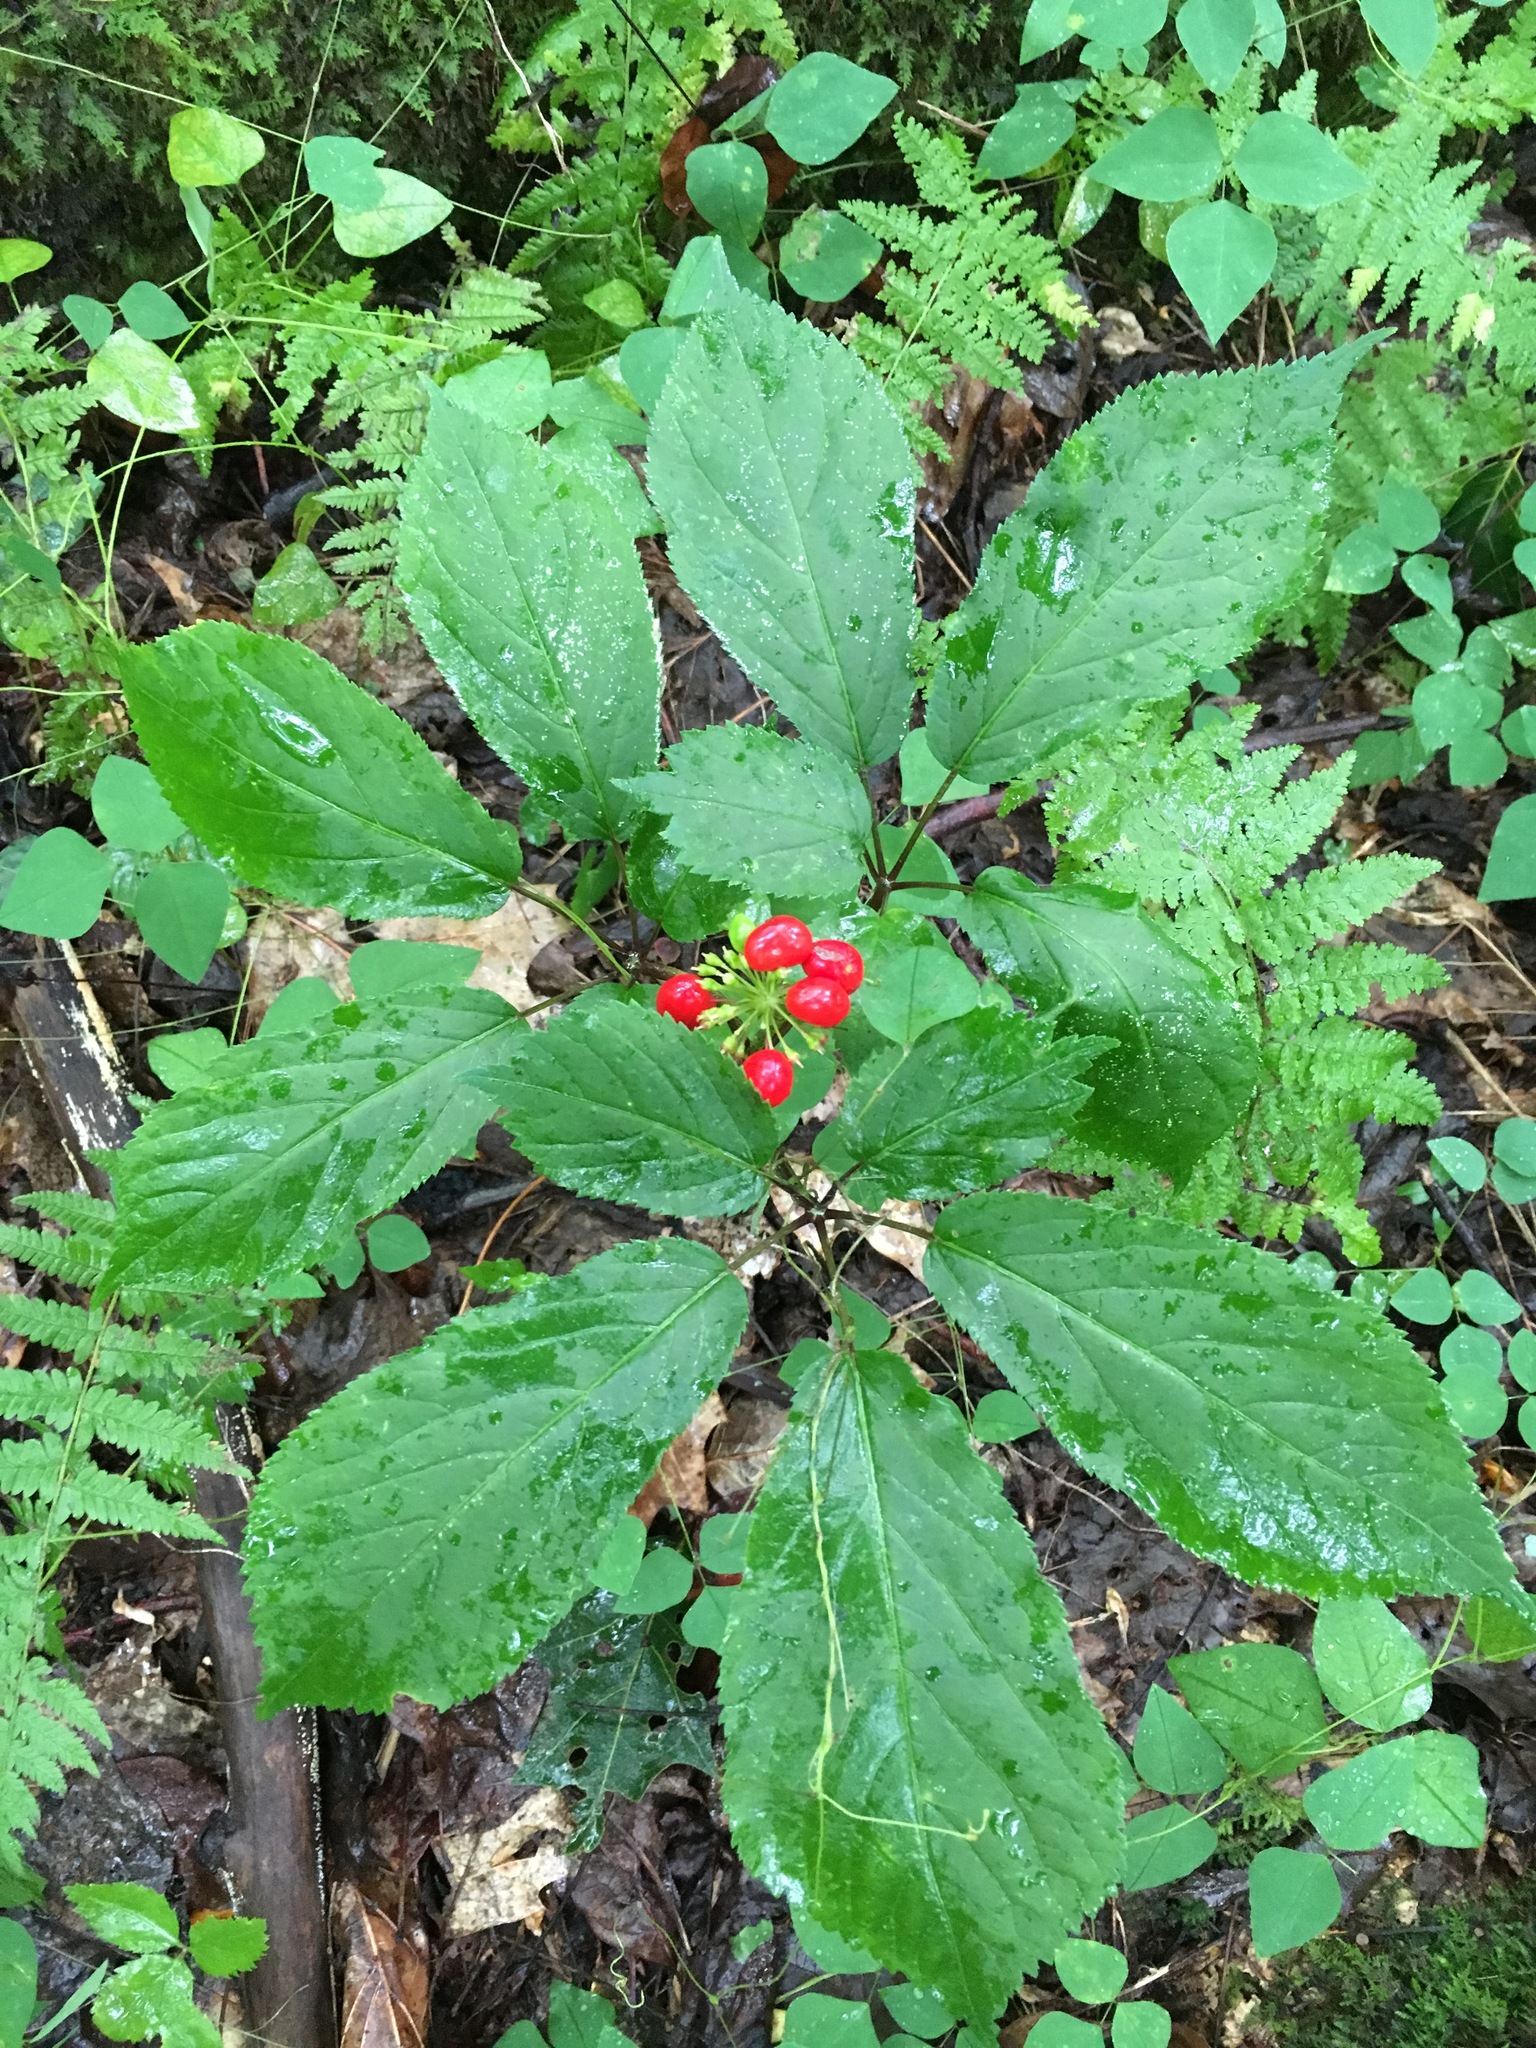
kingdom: Plantae
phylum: Tracheophyta
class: Magnoliopsida
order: Apiales
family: Araliaceae
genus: Panax
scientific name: Panax quinquefolius
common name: American ginseng
